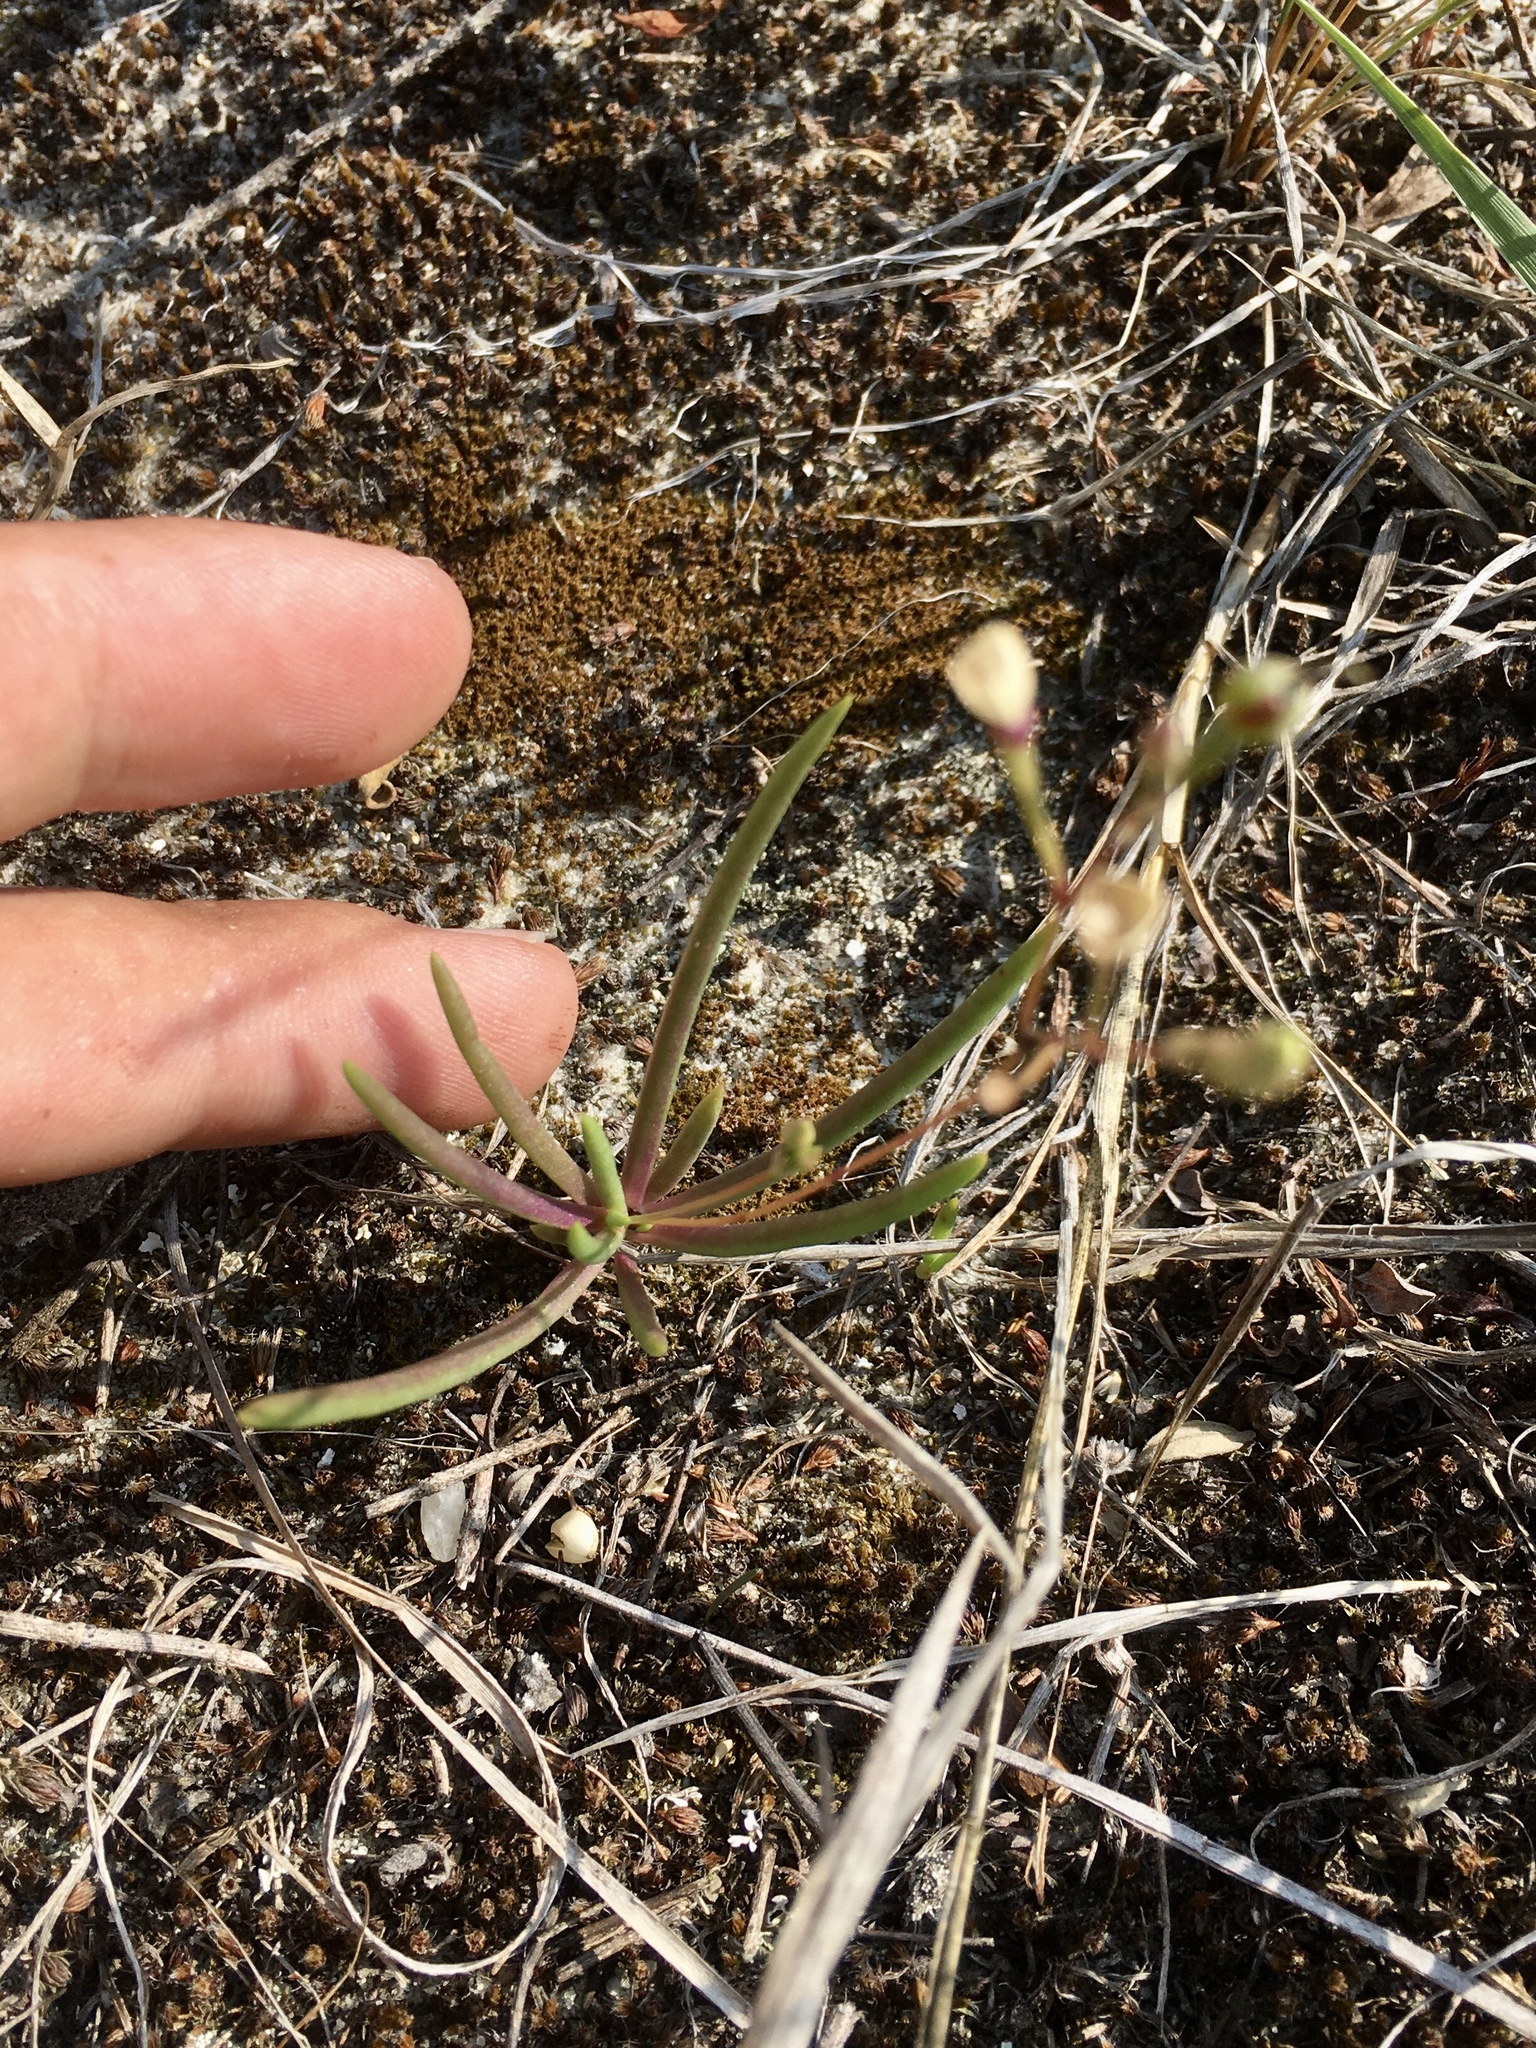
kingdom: Plantae
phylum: Tracheophyta
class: Magnoliopsida
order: Caryophyllales
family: Montiaceae
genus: Phemeranthus
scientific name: Phemeranthus rugospermus
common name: Prairie fameflower
